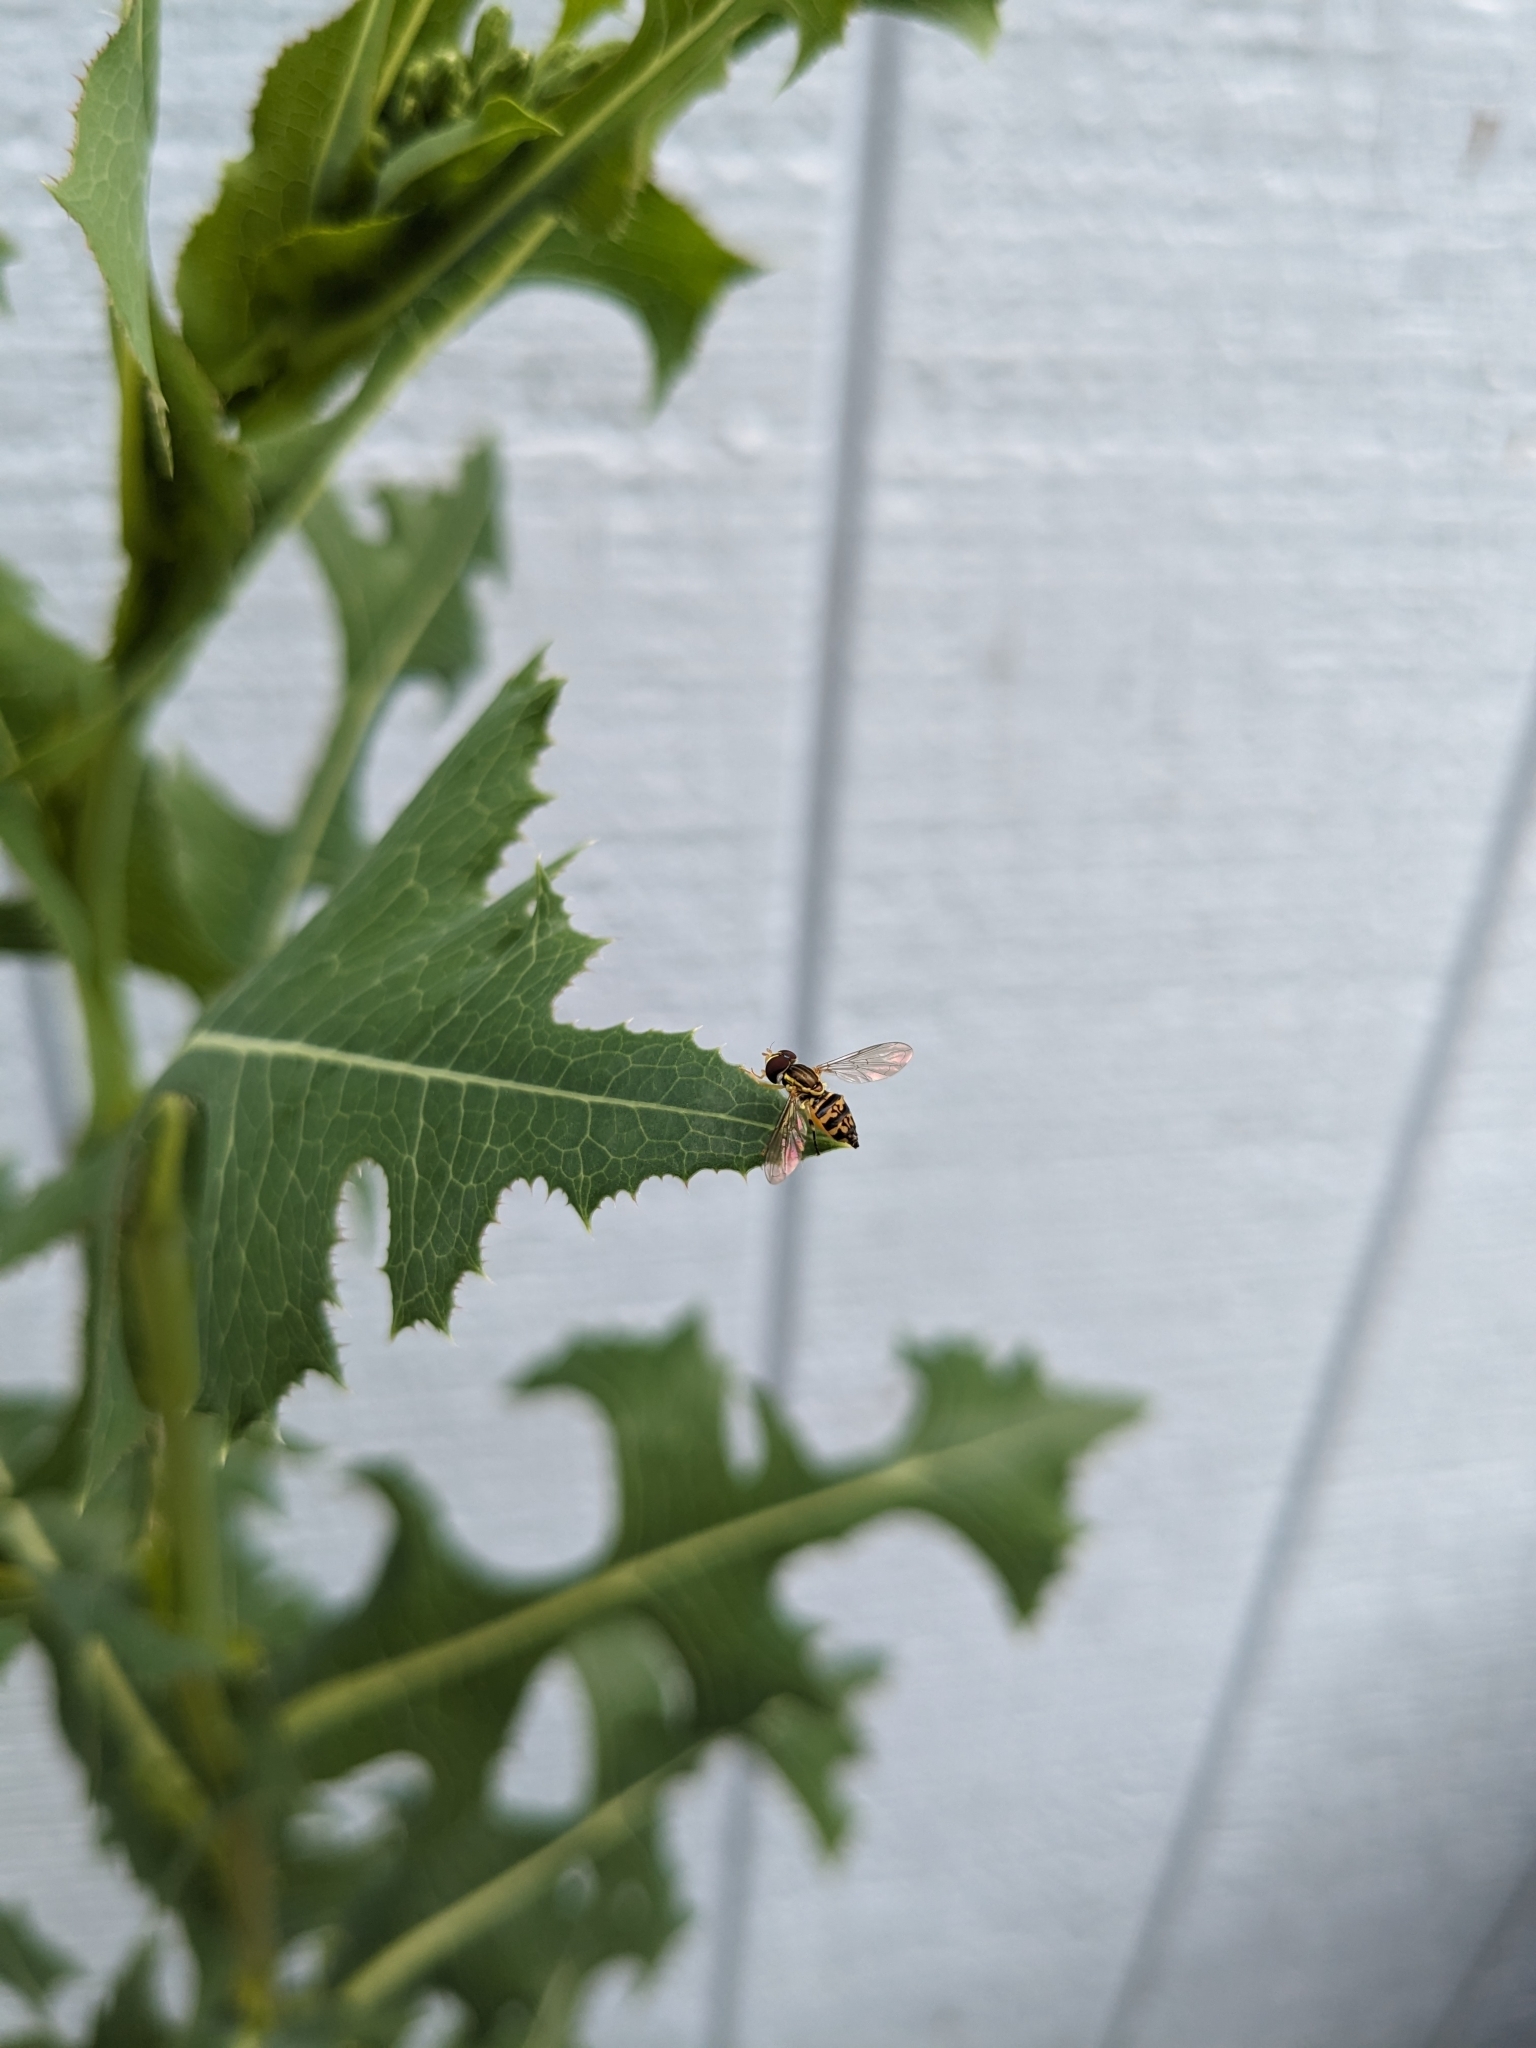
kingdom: Animalia
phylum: Arthropoda
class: Insecta
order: Diptera
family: Syrphidae
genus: Toxomerus
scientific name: Toxomerus geminatus
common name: Eastern calligrapher
